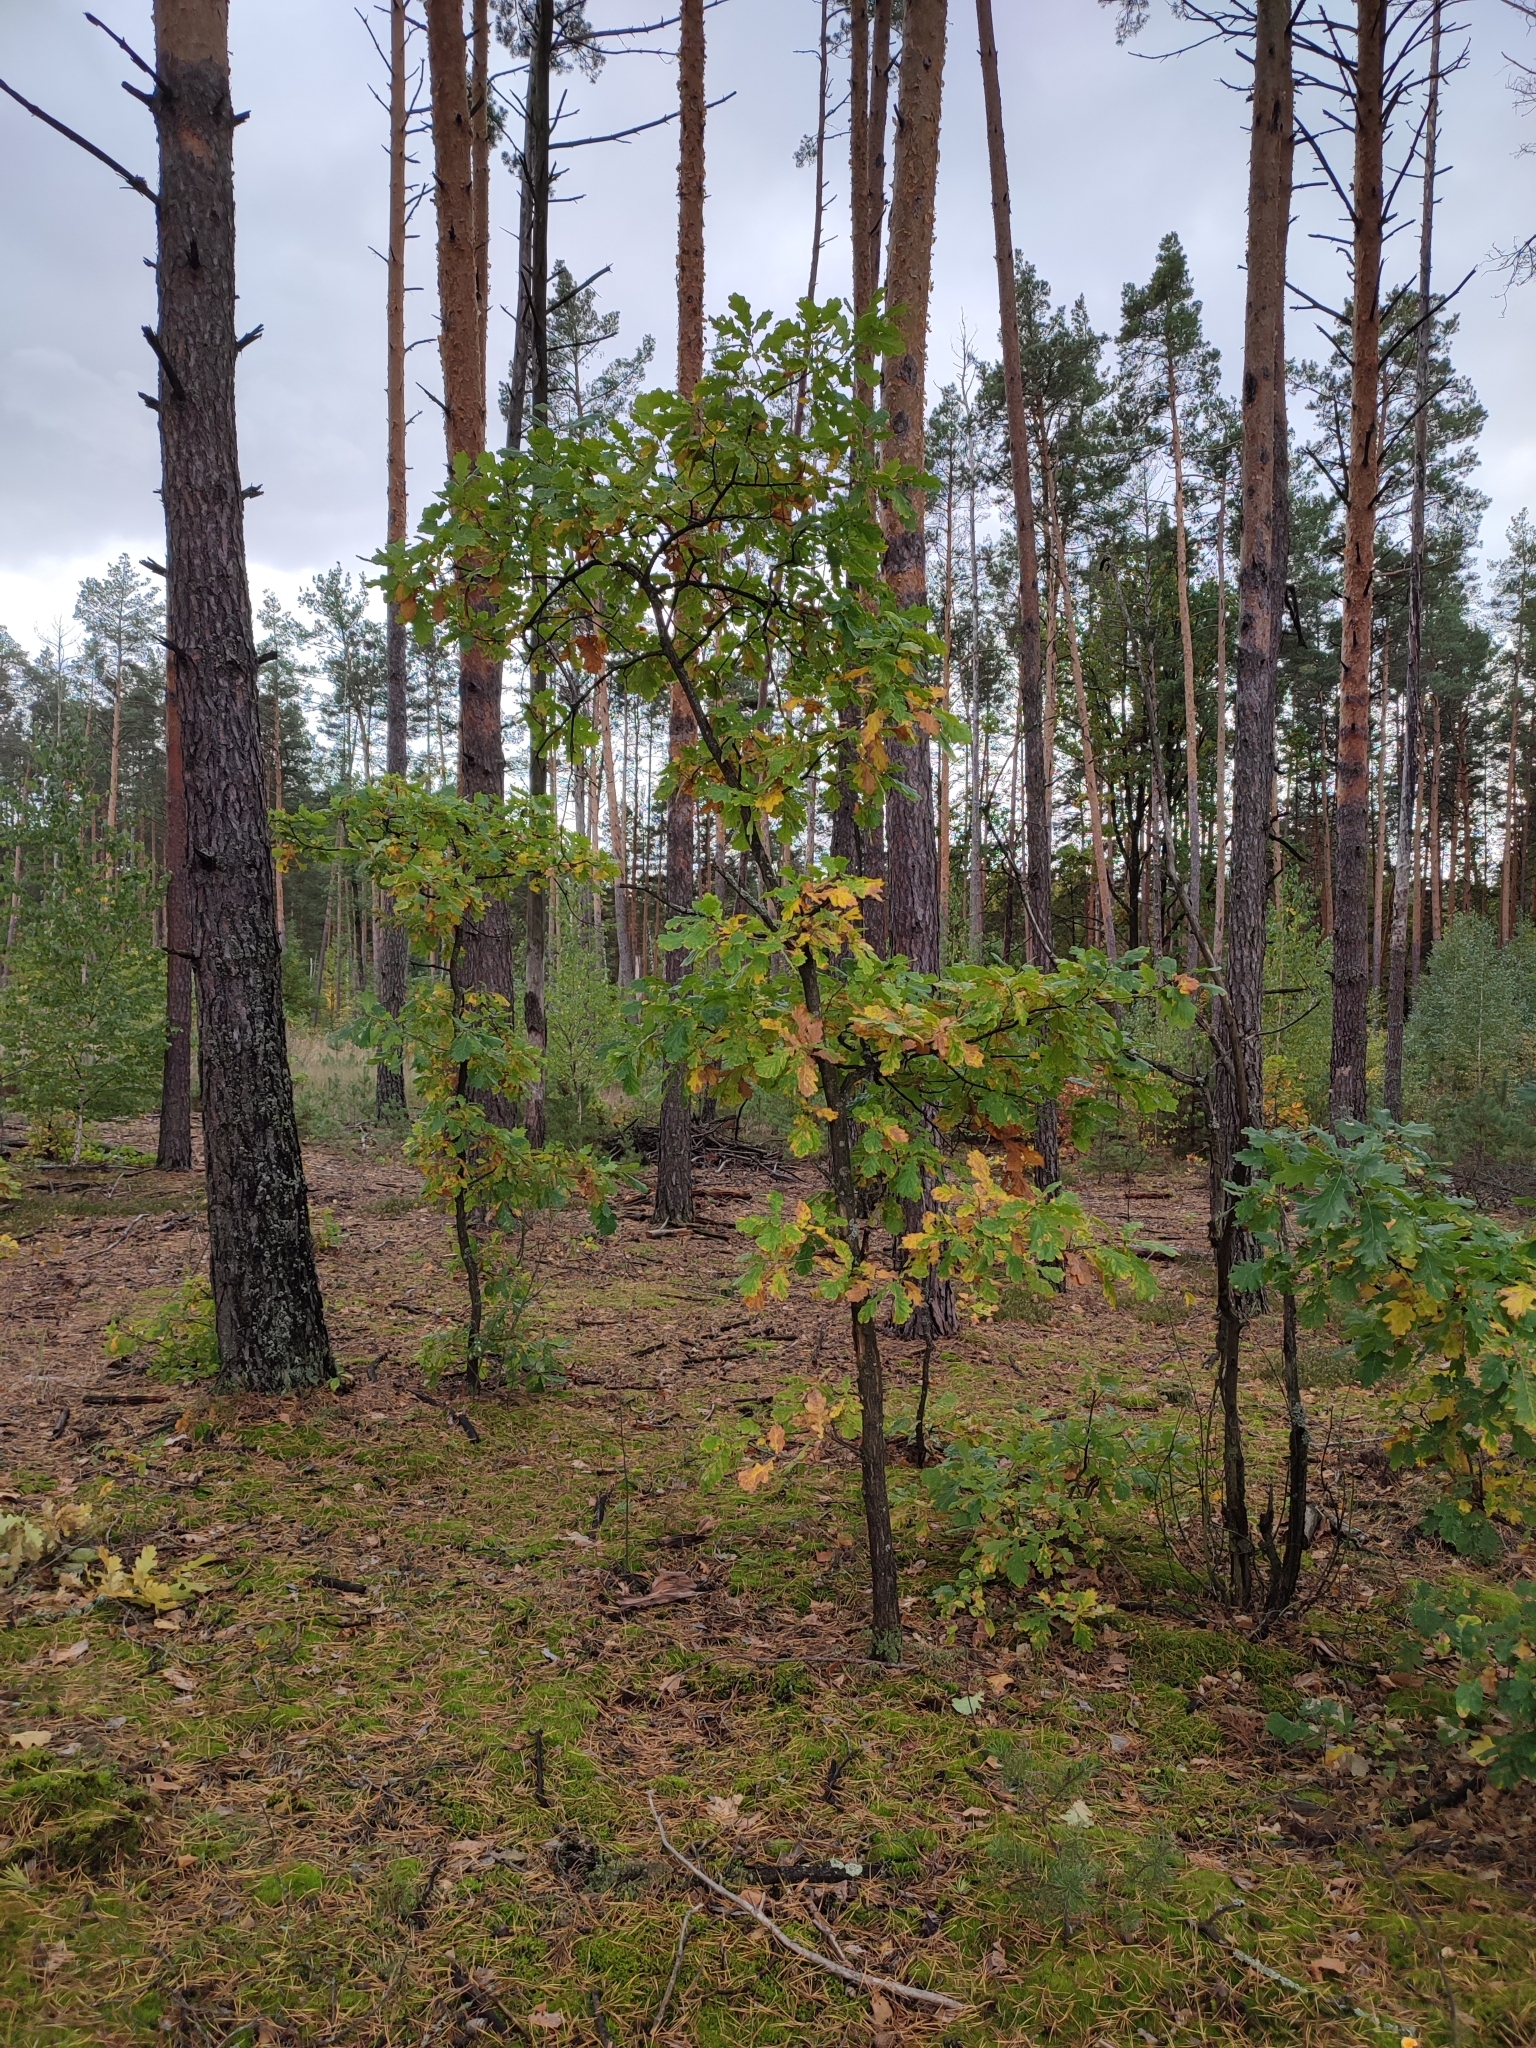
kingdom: Plantae
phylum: Tracheophyta
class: Magnoliopsida
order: Fagales
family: Fagaceae
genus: Quercus
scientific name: Quercus robur
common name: Pedunculate oak
